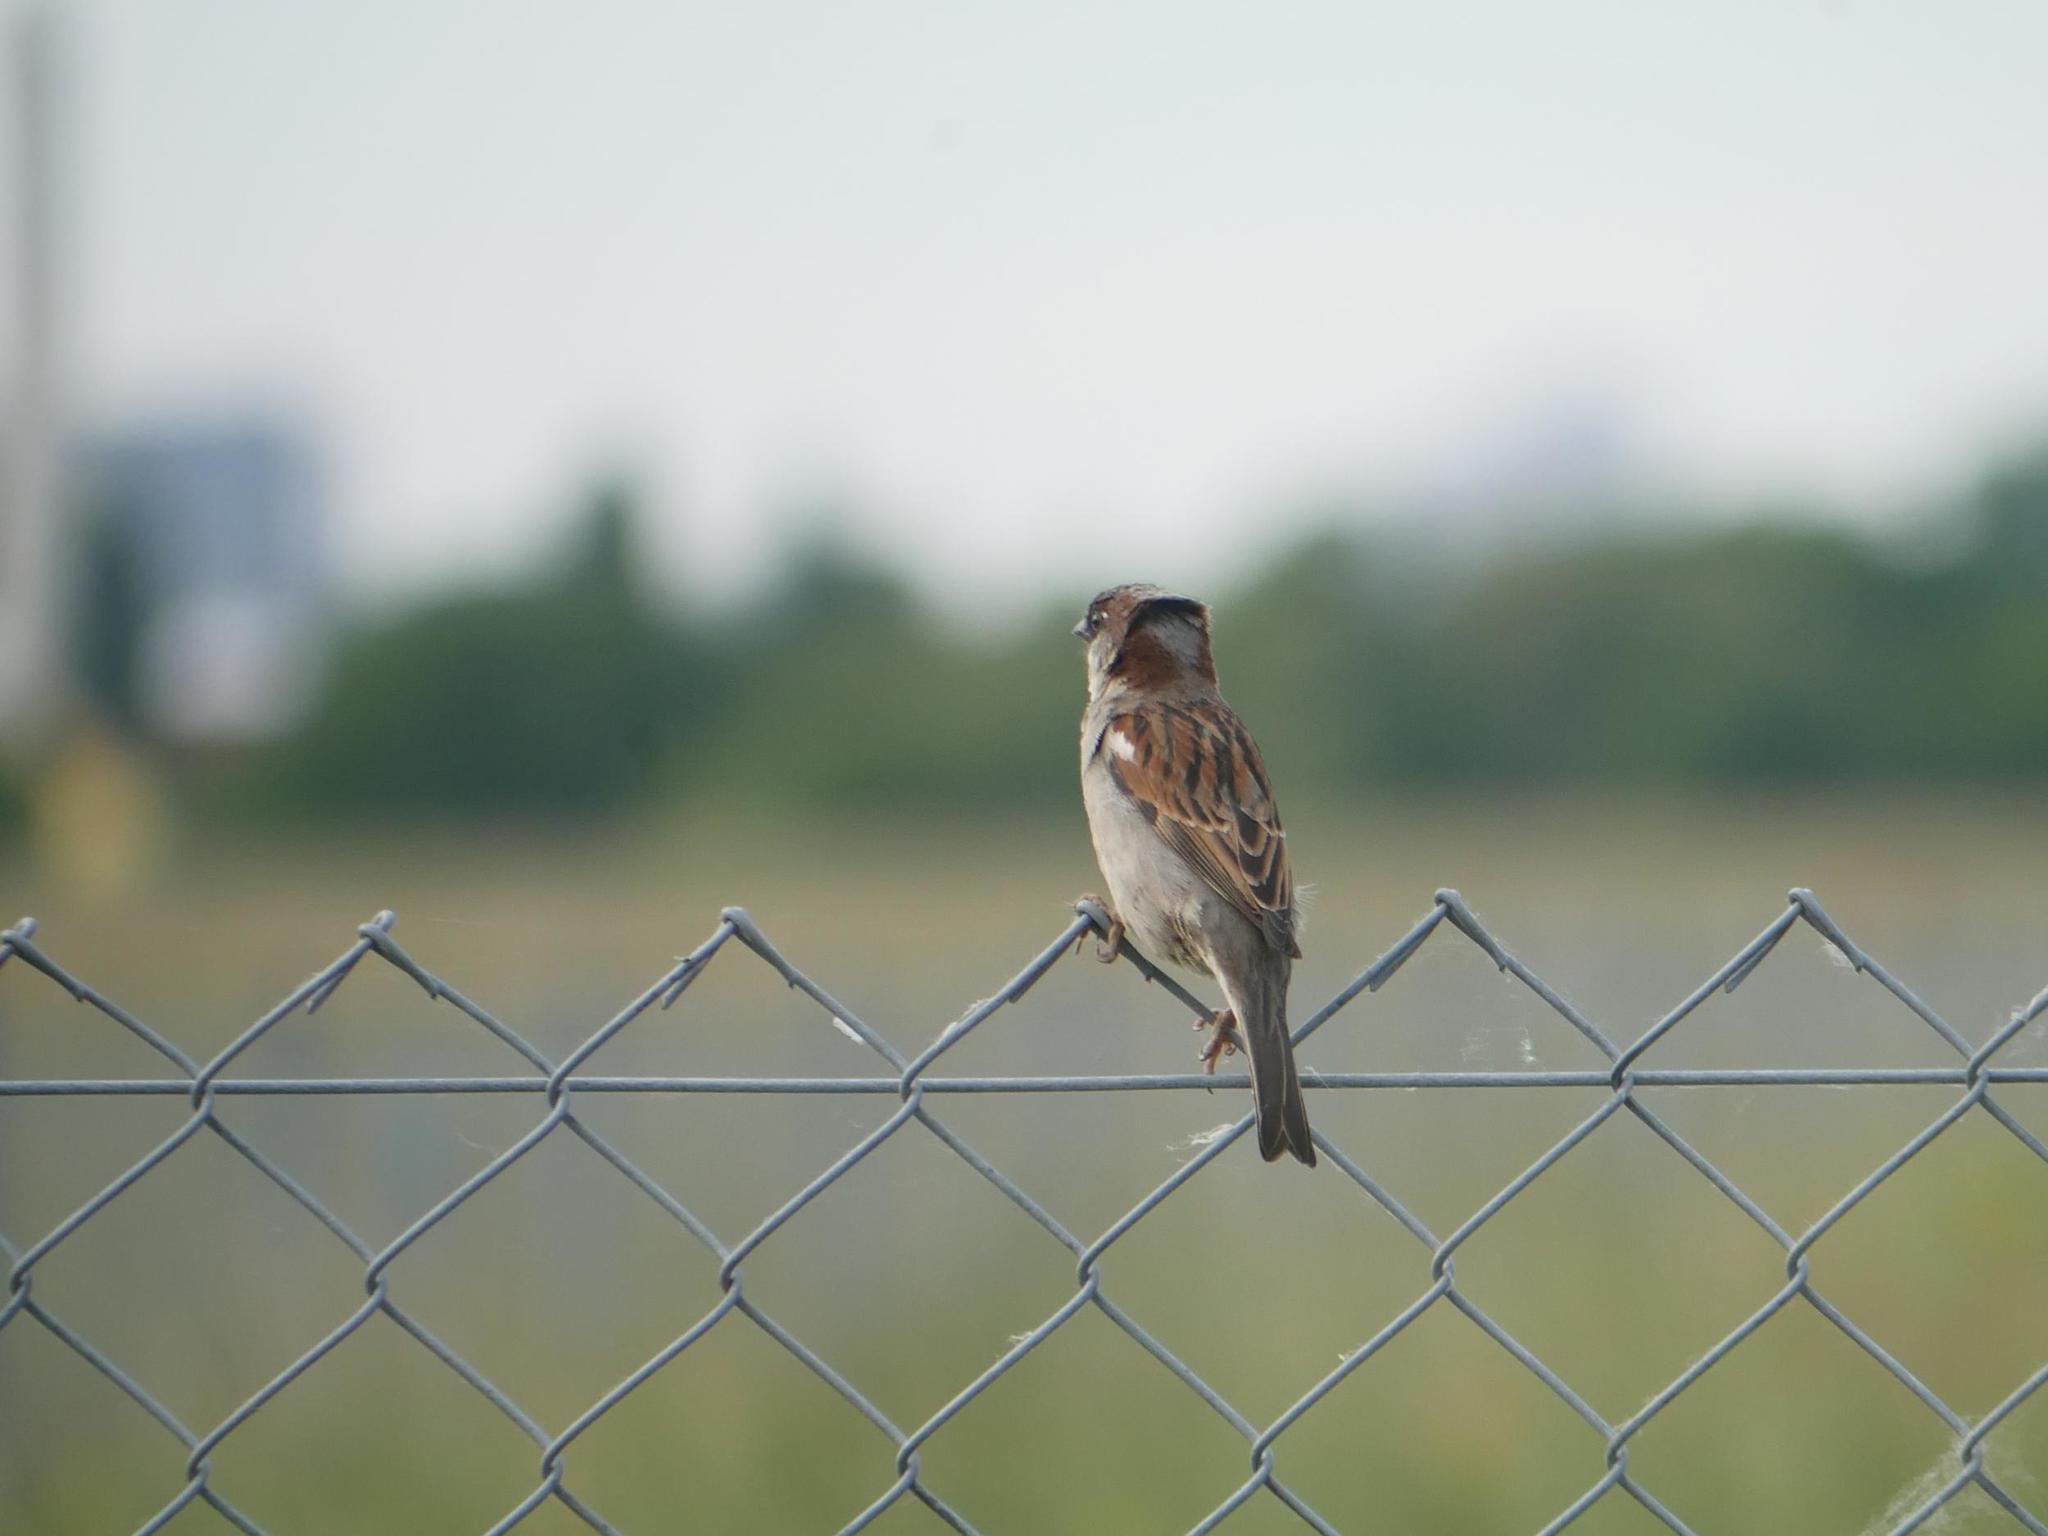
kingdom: Animalia
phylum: Chordata
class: Aves
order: Passeriformes
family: Passeridae
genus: Passer
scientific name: Passer domesticus
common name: House sparrow
